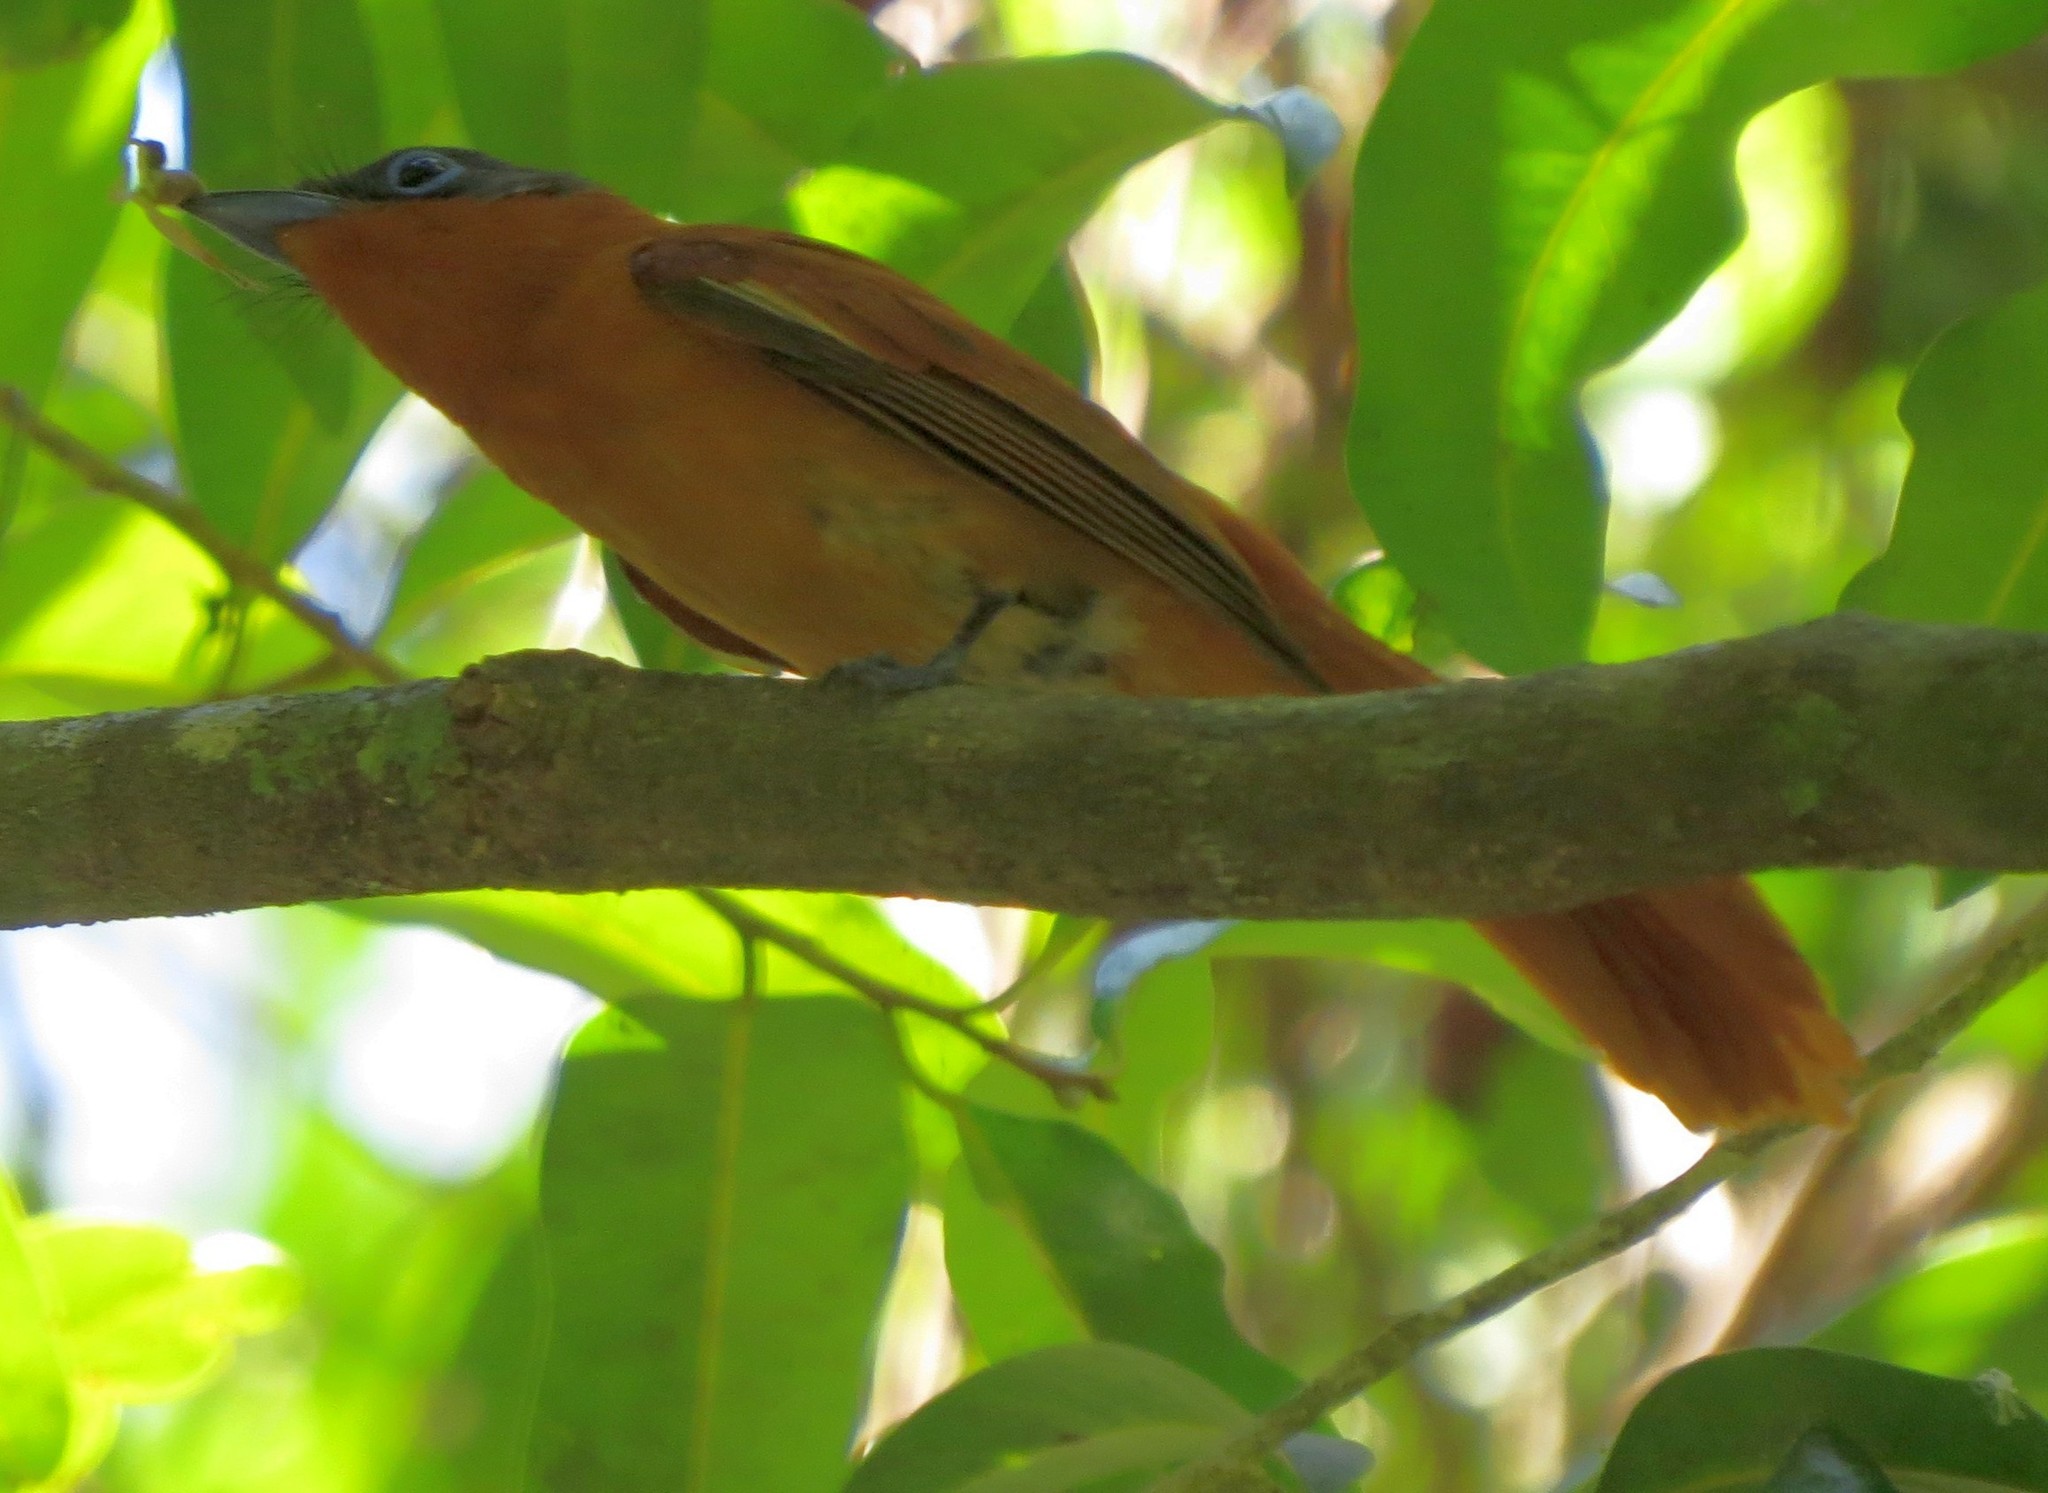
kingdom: Animalia
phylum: Chordata
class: Aves
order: Passeriformes
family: Monarchidae
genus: Terpsiphone
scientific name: Terpsiphone mutata
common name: Malagasy paradise flycatcher
